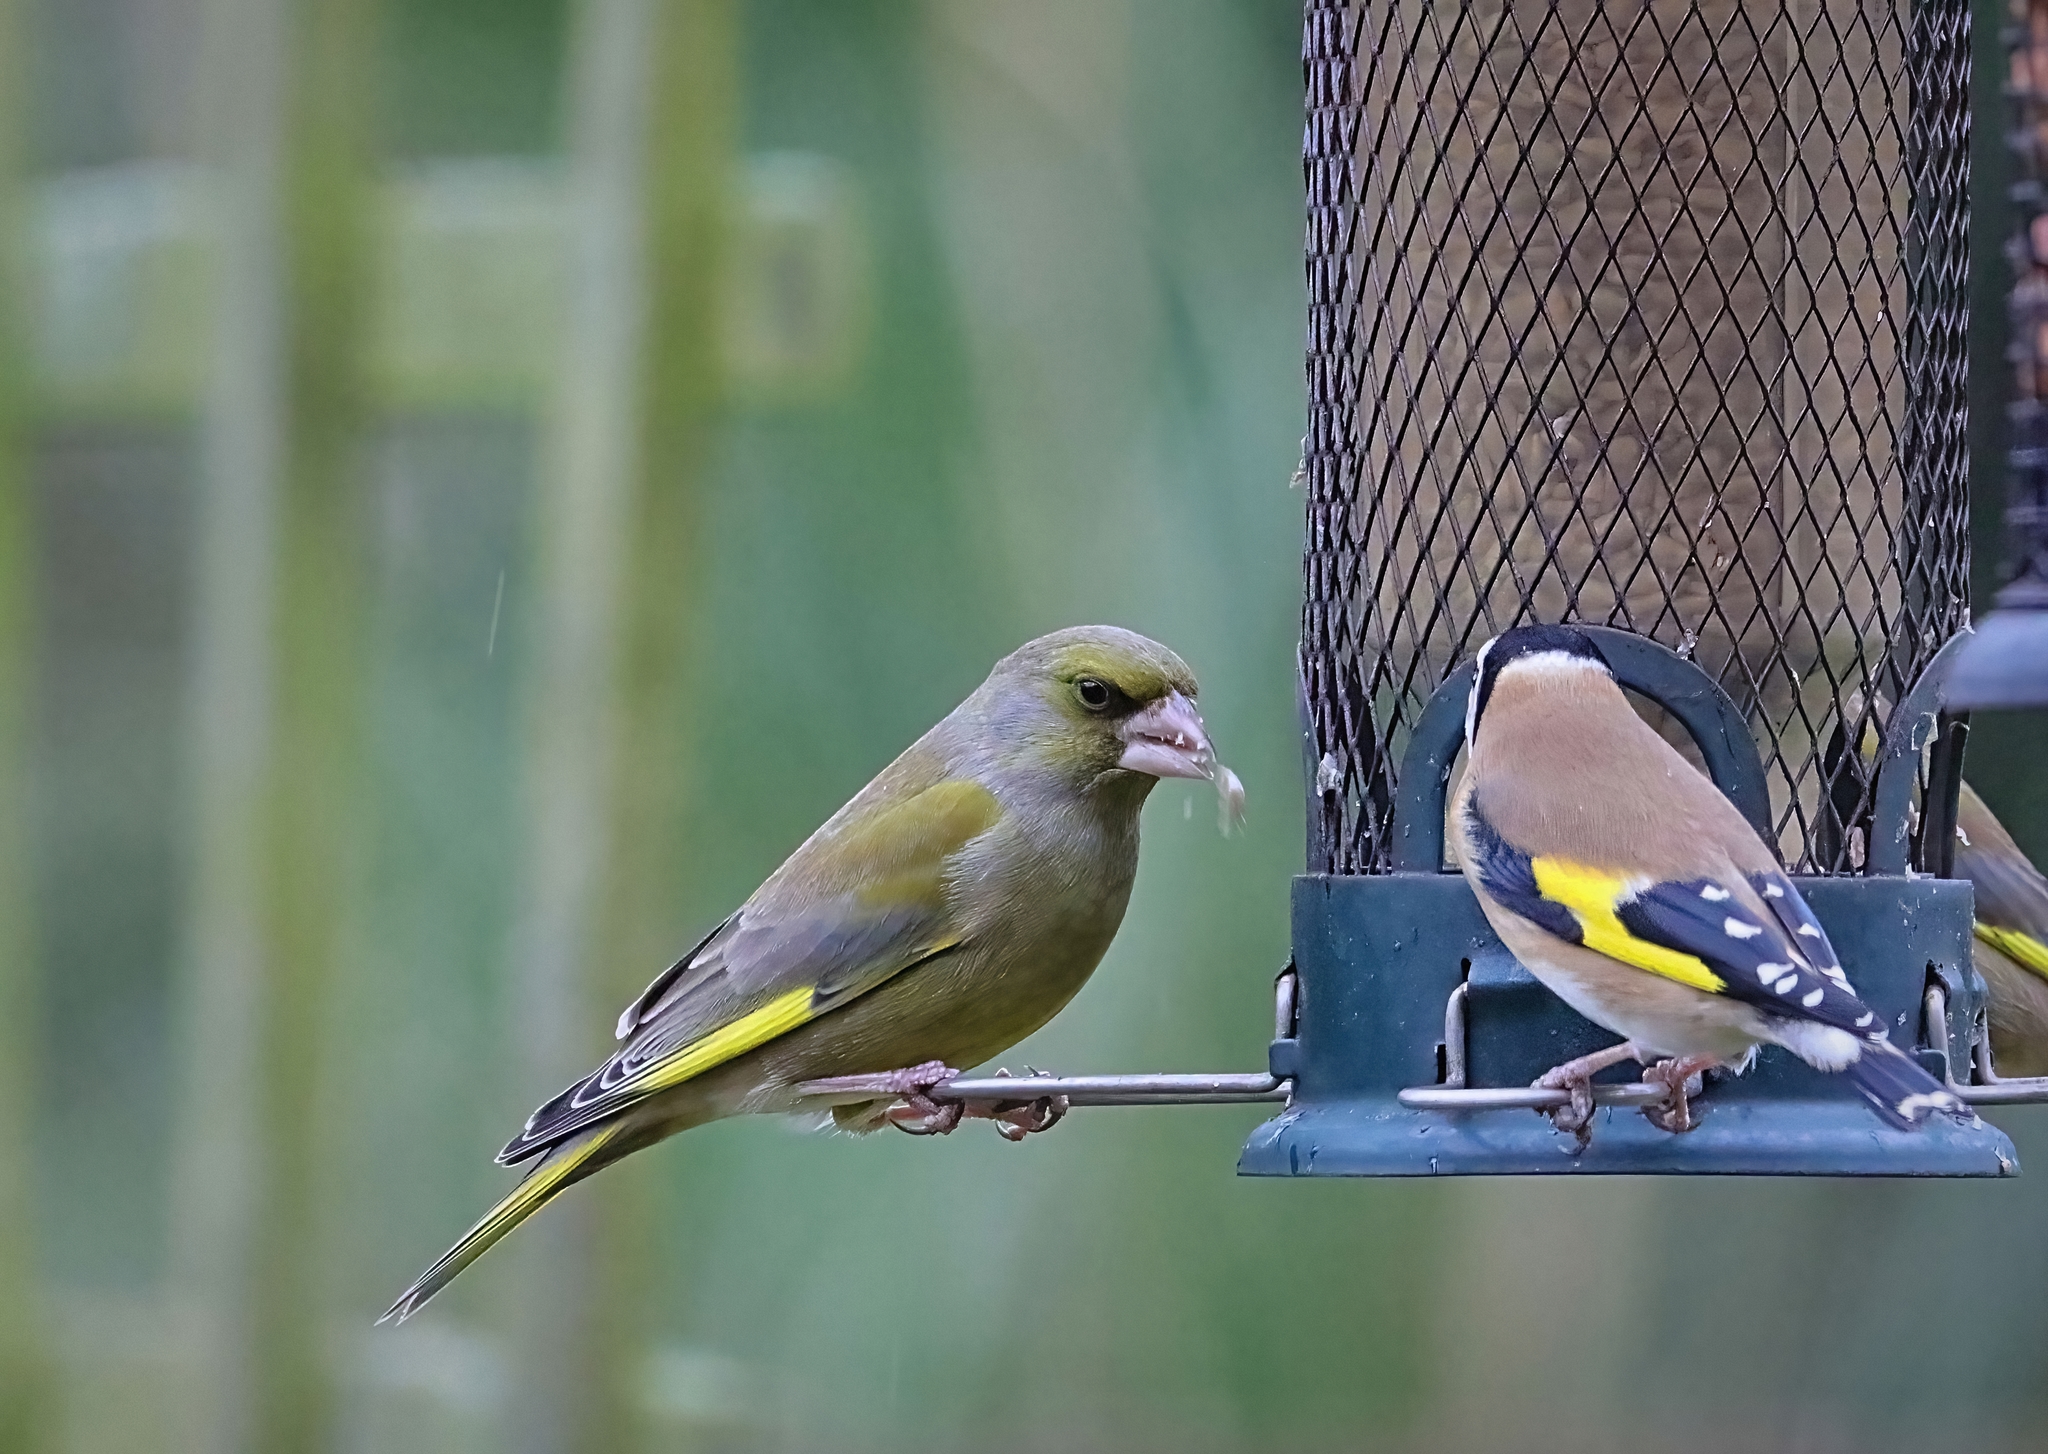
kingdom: Plantae
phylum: Tracheophyta
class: Liliopsida
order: Poales
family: Poaceae
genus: Chloris
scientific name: Chloris chloris
